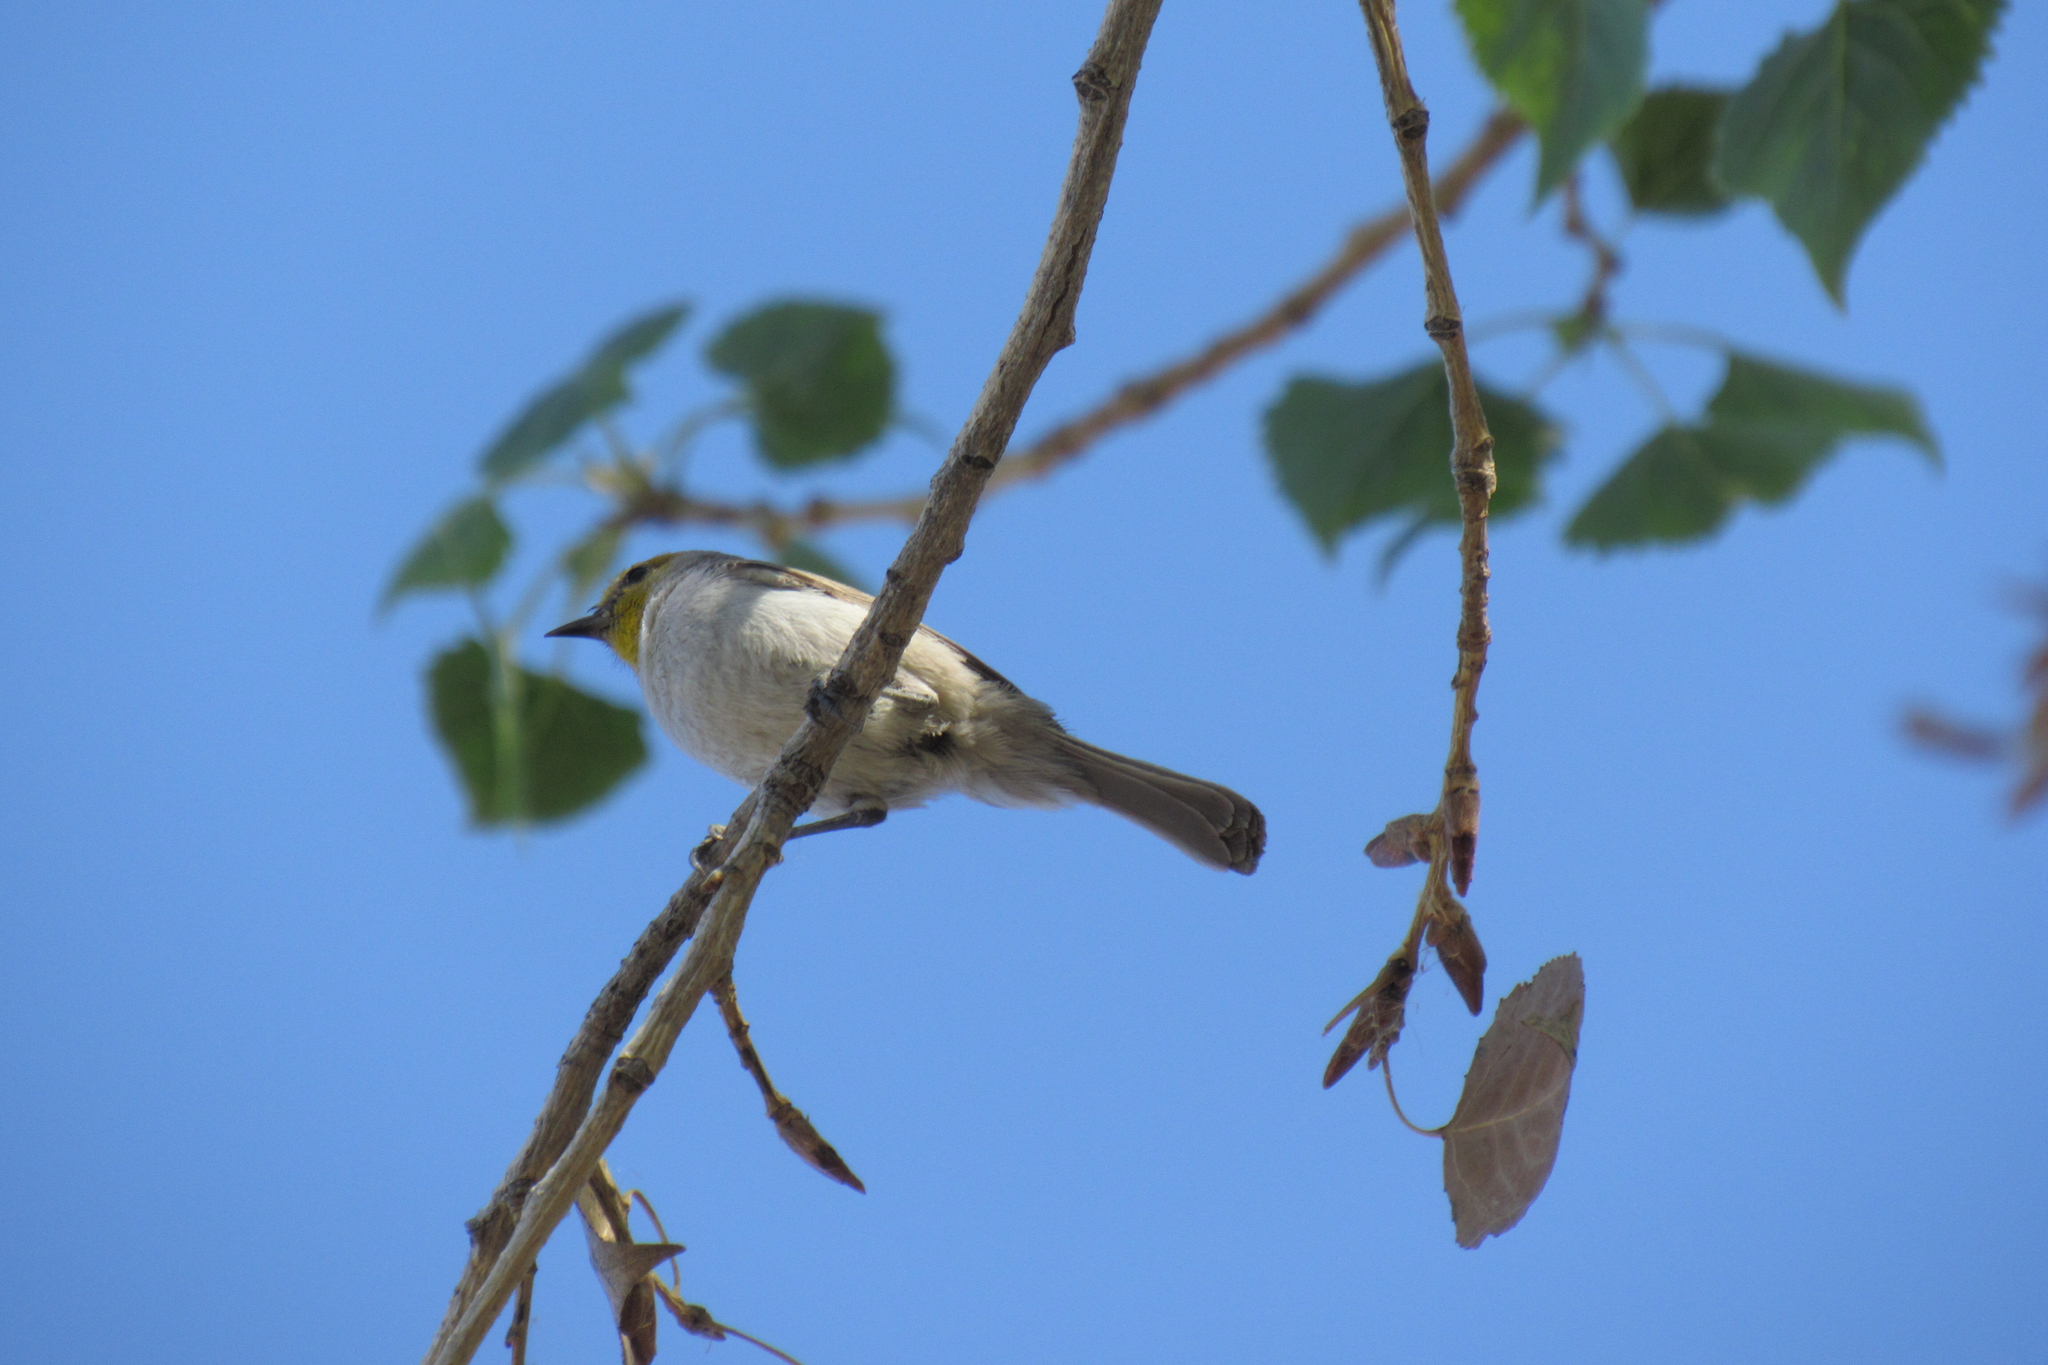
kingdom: Animalia
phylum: Chordata
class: Aves
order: Passeriformes
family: Remizidae
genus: Auriparus
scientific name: Auriparus flaviceps
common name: Verdin
